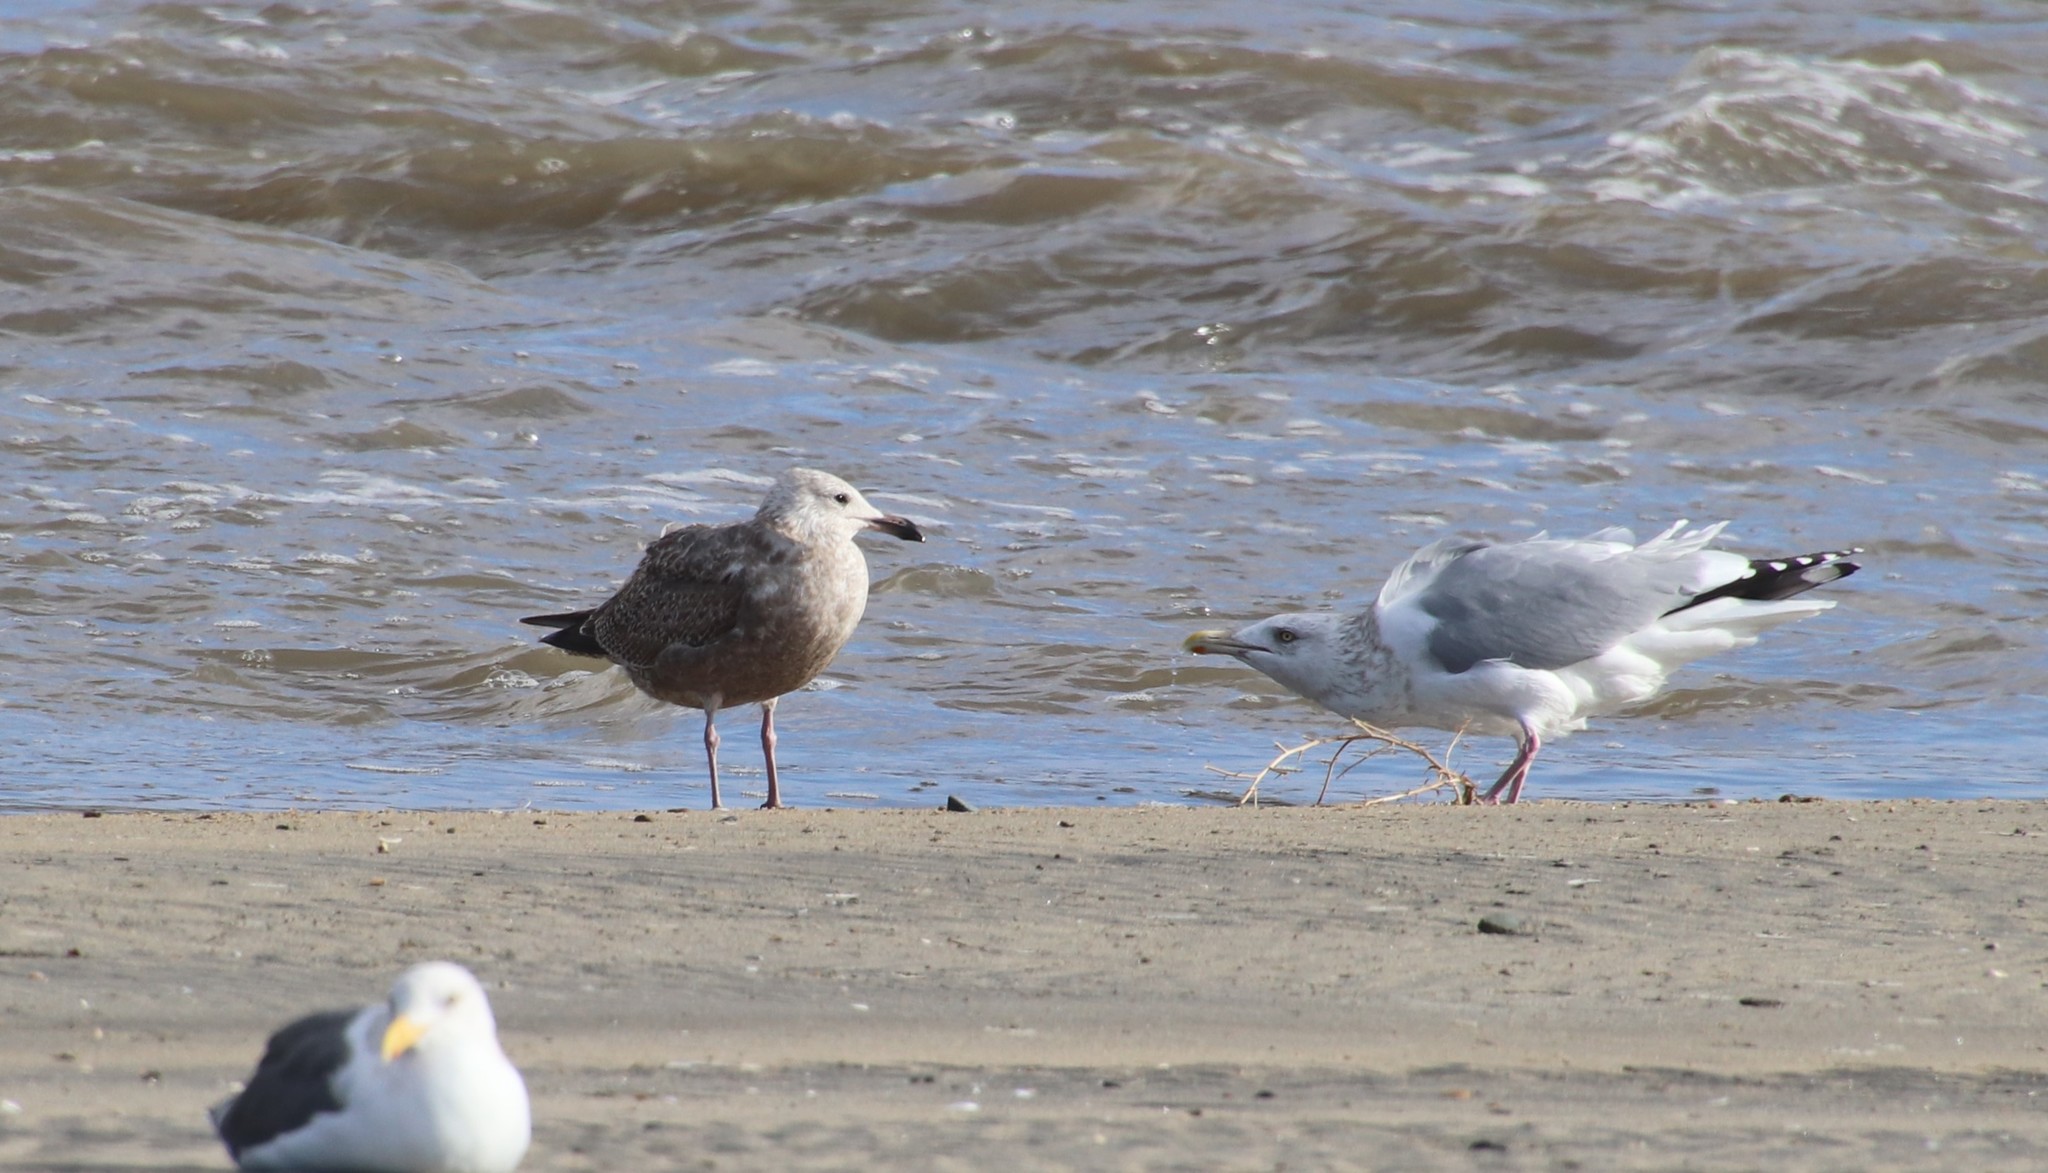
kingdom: Animalia
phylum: Chordata
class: Aves
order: Charadriiformes
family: Laridae
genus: Larus
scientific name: Larus occidentalis
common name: Western gull
